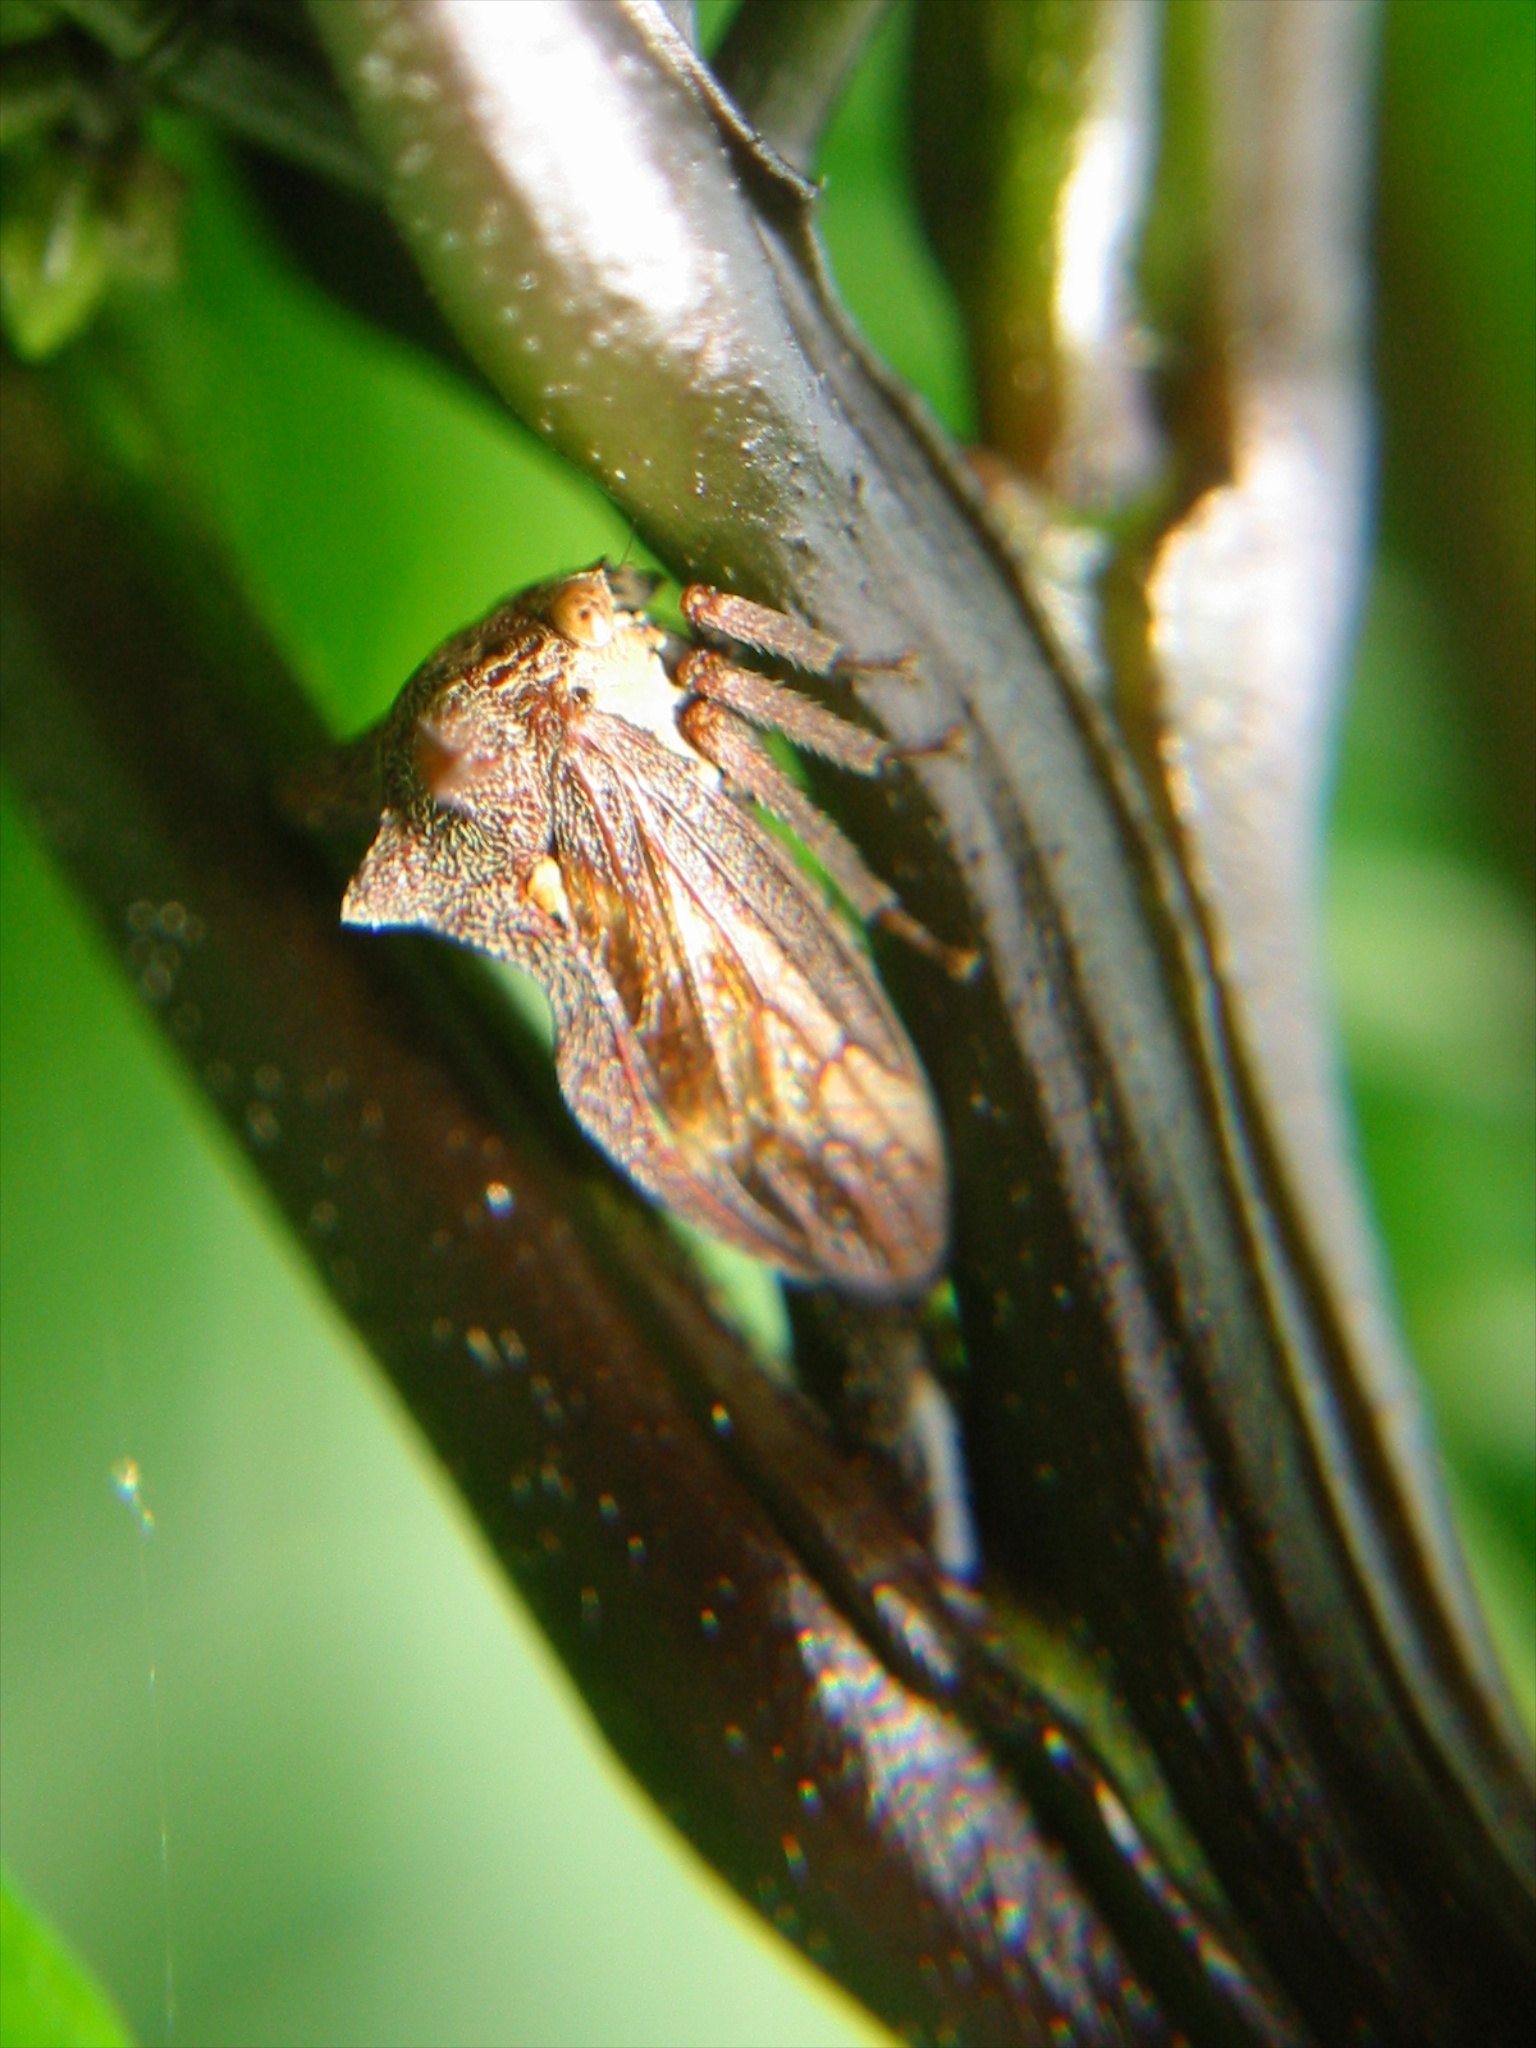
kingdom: Animalia
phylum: Arthropoda
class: Insecta
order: Hemiptera
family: Membracidae
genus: Acanthuchus
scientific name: Acanthuchus trispinifer
